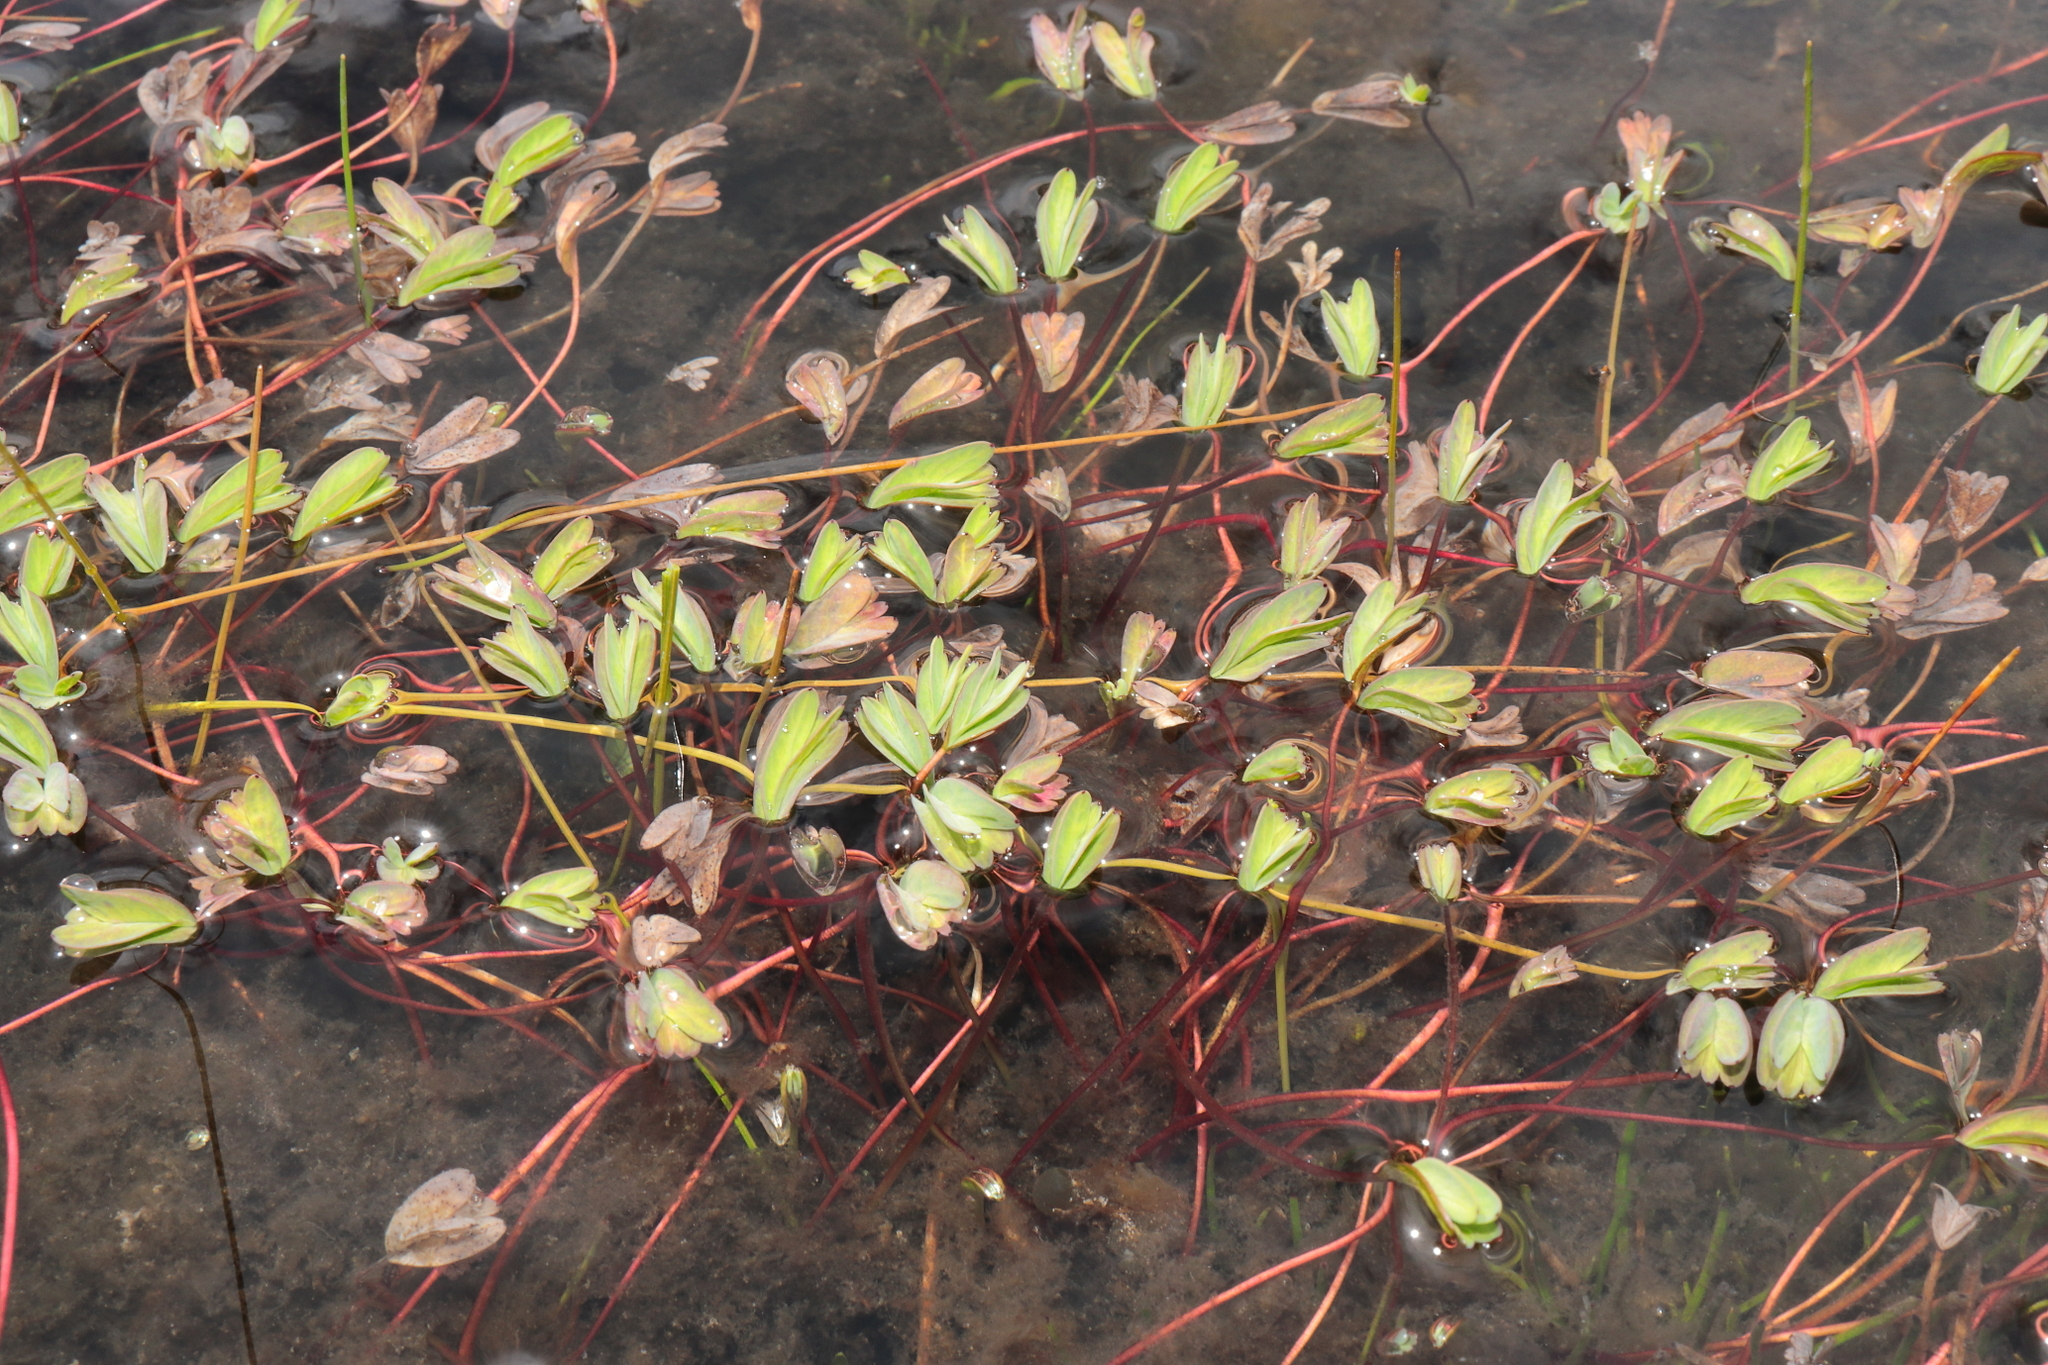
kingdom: Plantae
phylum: Tracheophyta
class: Magnoliopsida
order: Rosales
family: Rosaceae
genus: Lachemilla
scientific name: Lachemilla diplophylla
